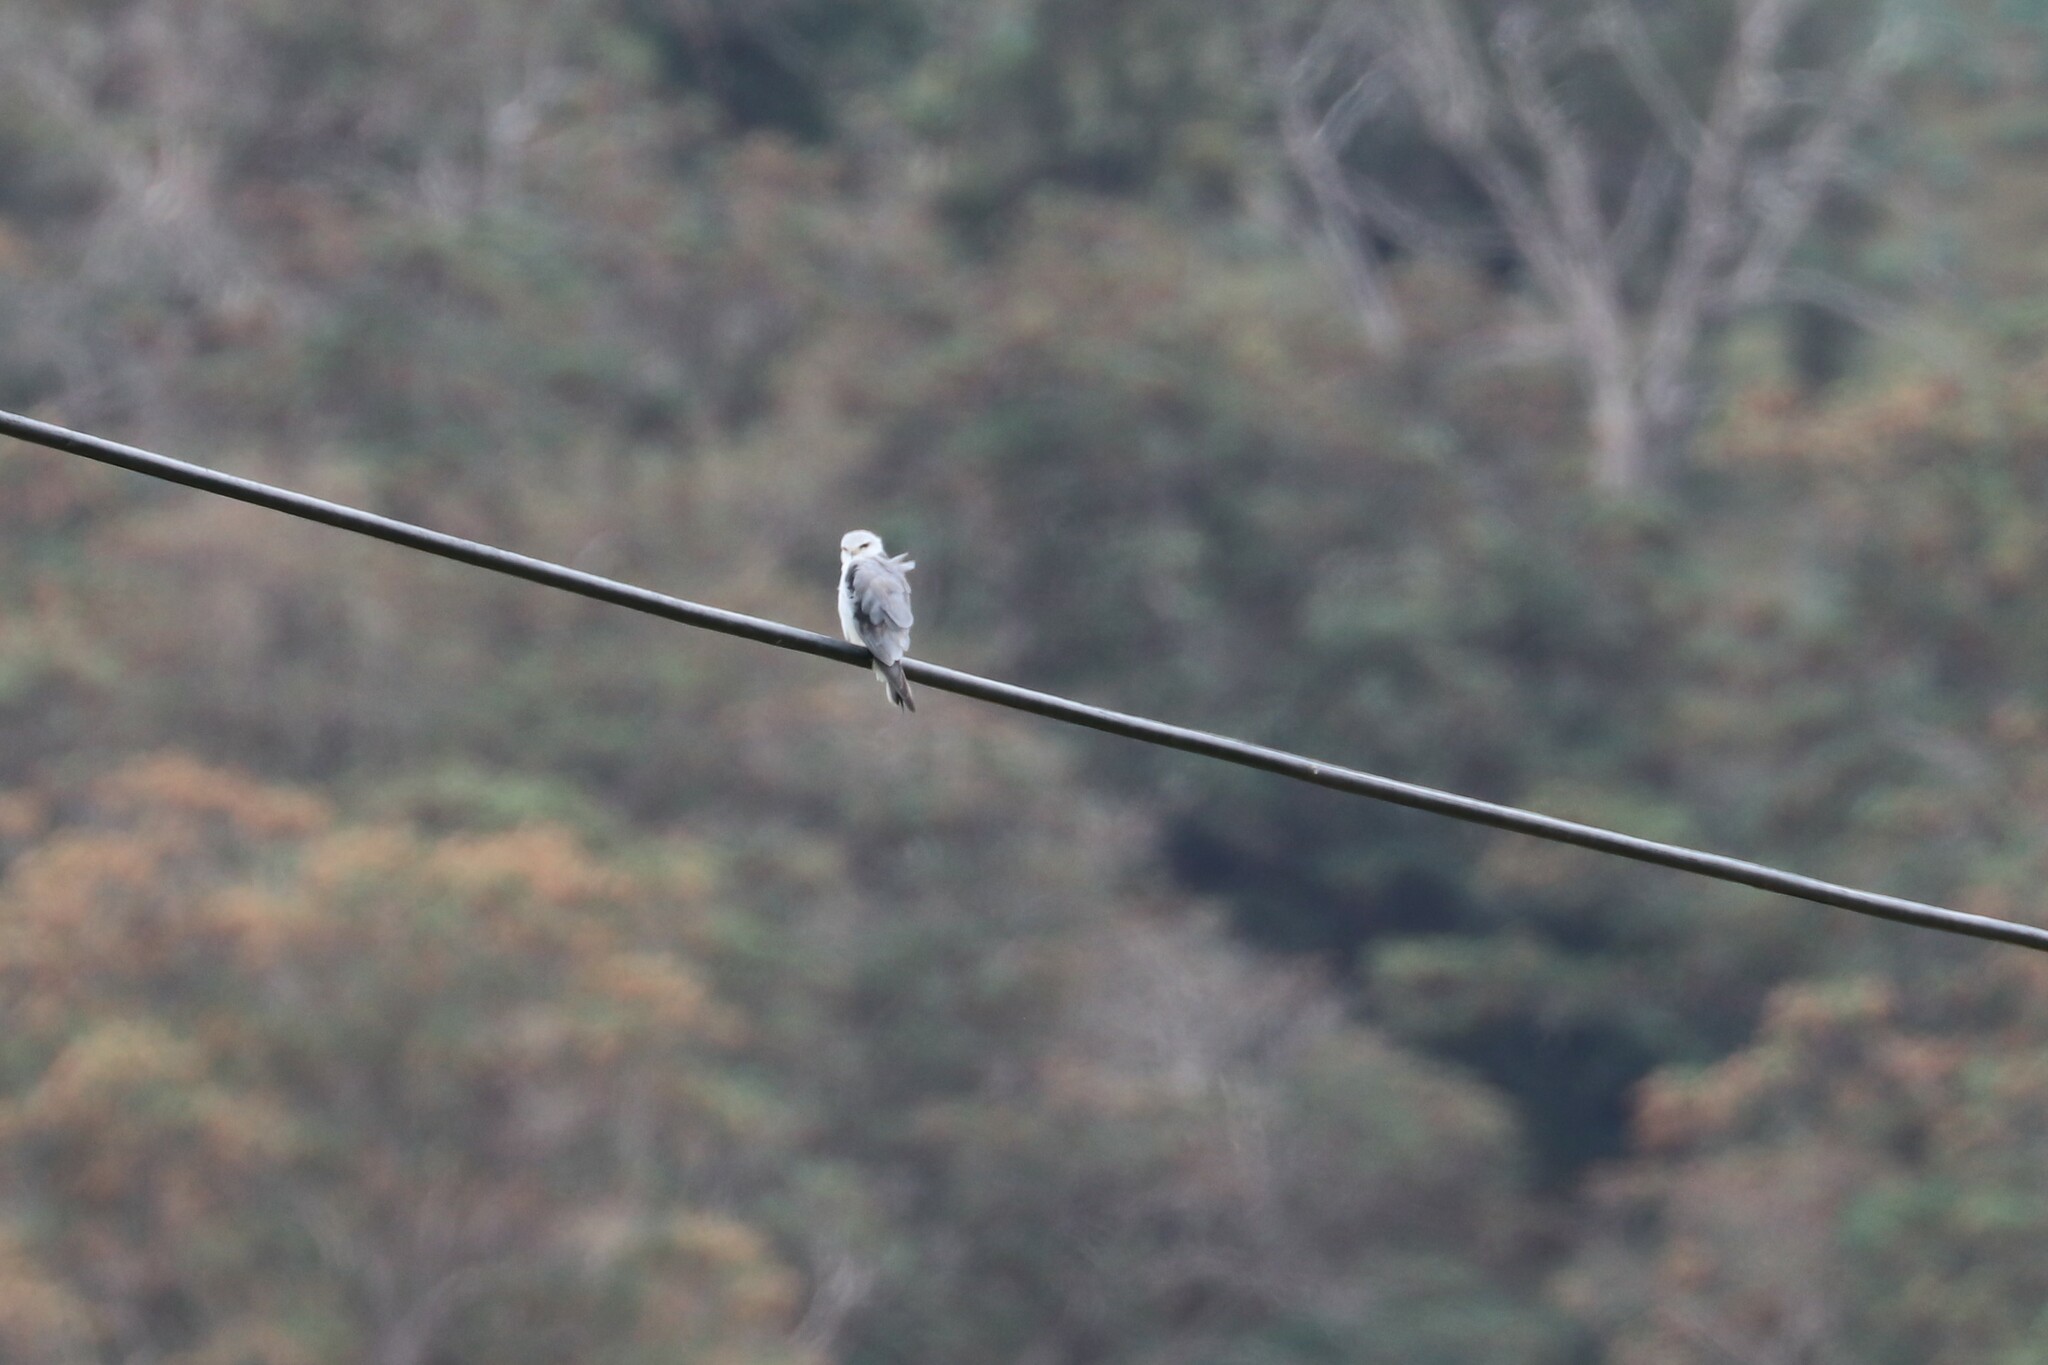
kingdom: Animalia
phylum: Chordata
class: Aves
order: Accipitriformes
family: Accipitridae
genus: Elanus
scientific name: Elanus caeruleus
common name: Black-winged kite
